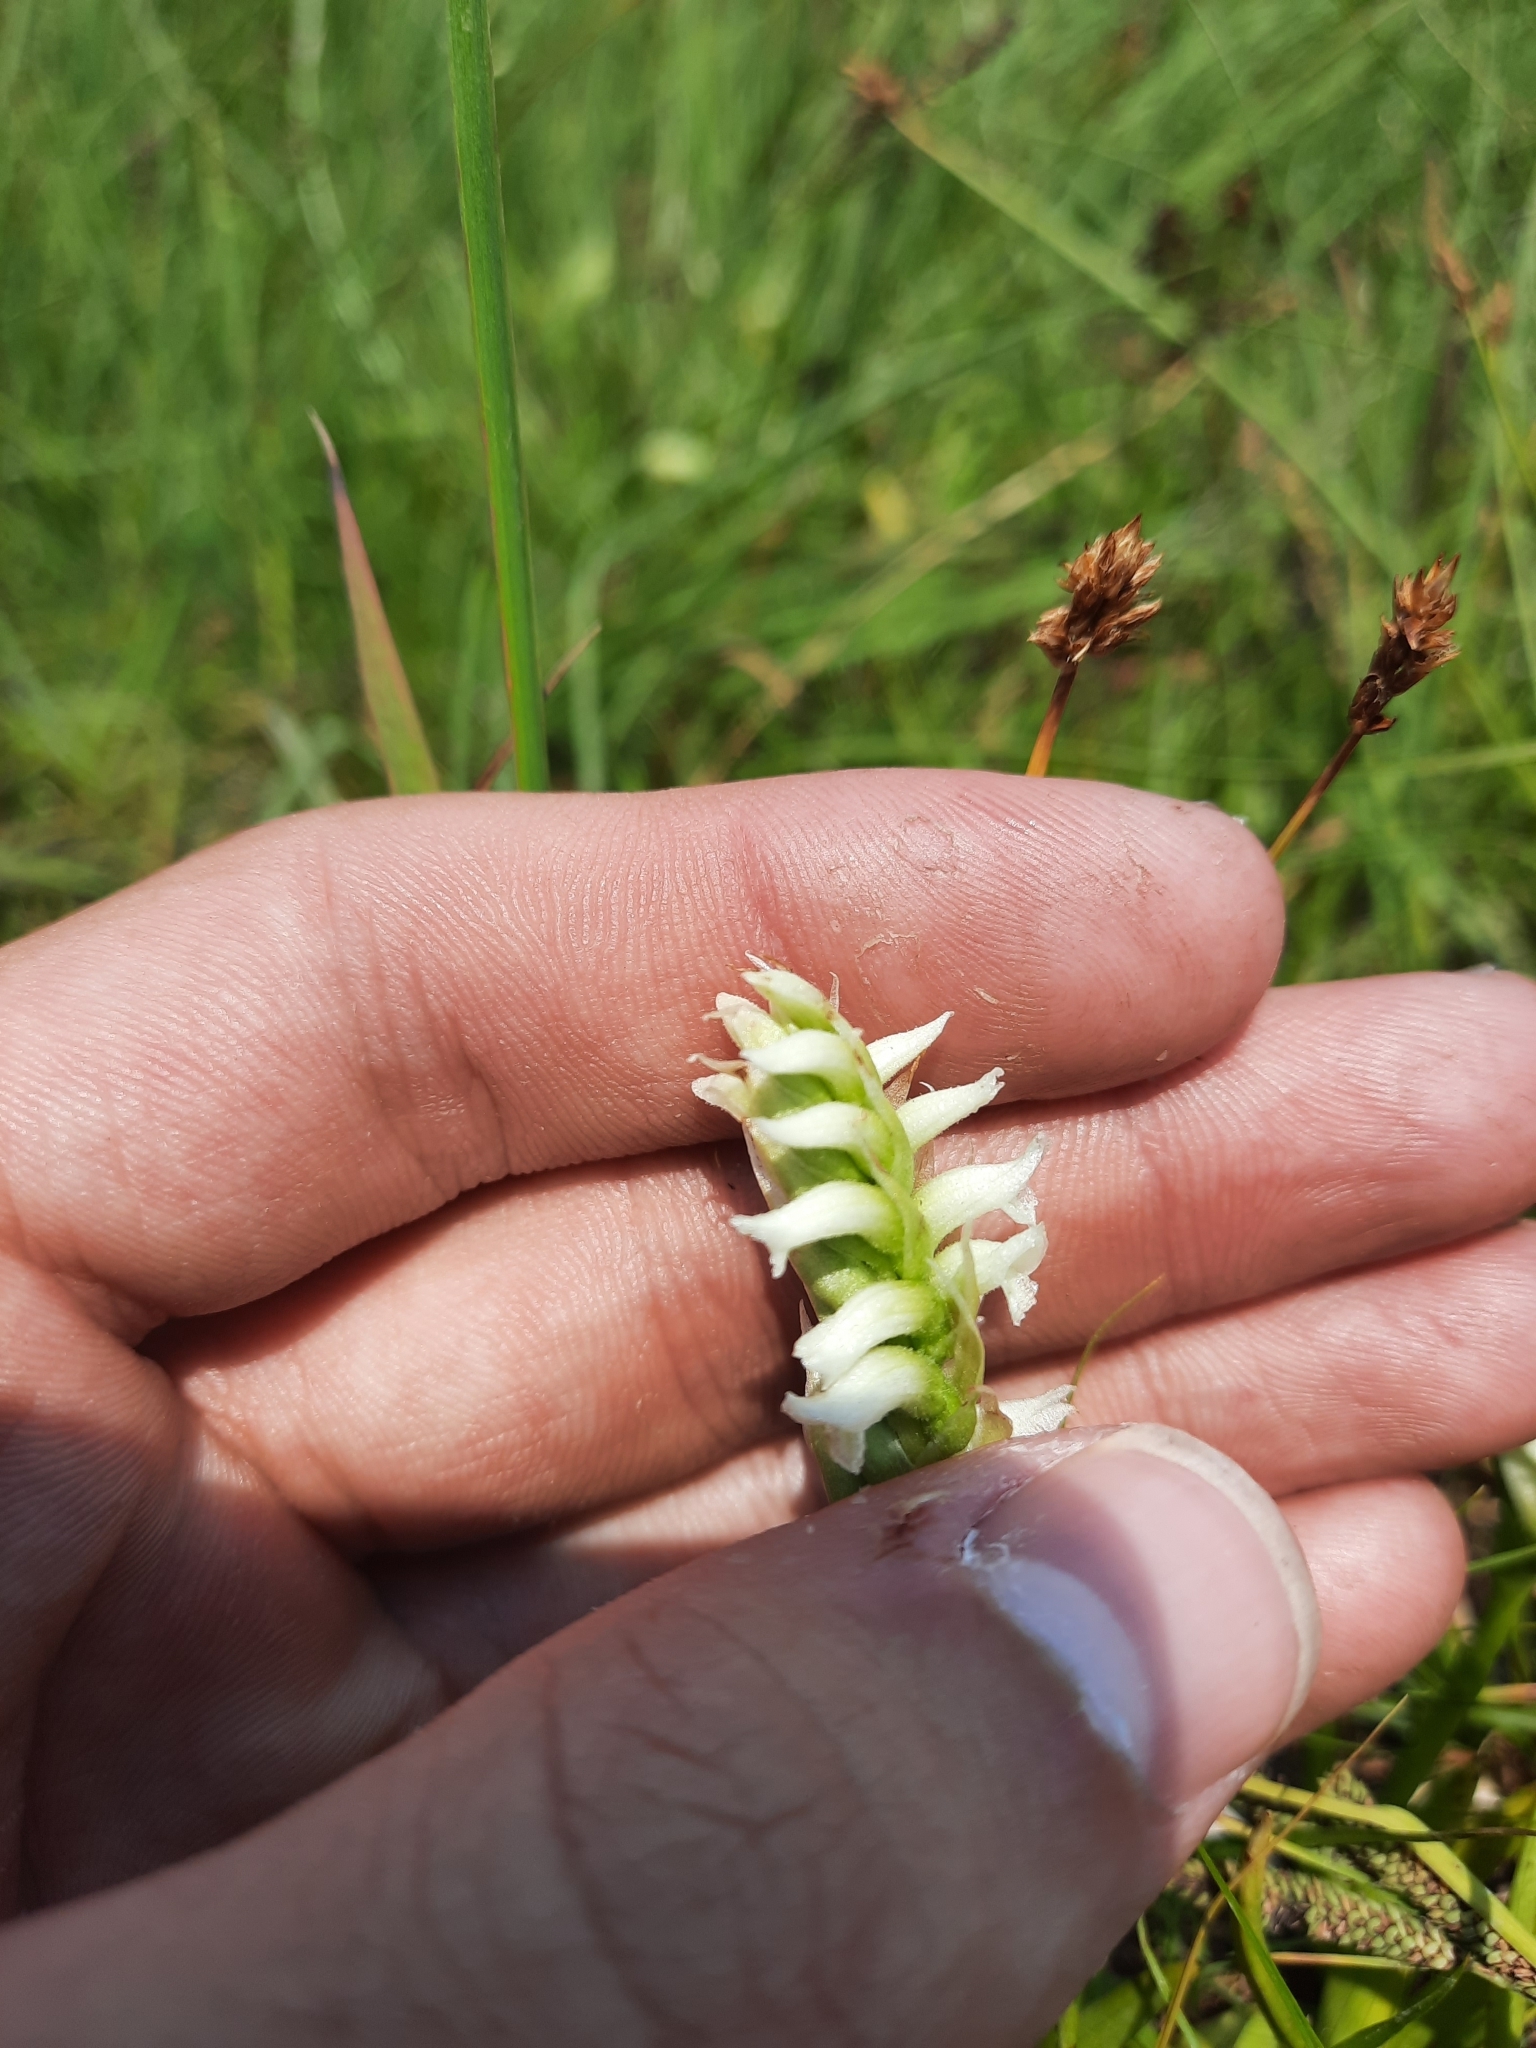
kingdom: Plantae
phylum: Tracheophyta
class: Liliopsida
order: Asparagales
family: Orchidaceae
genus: Spiranthes
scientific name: Spiranthes romanzoffiana
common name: Irish lady's-tresses
